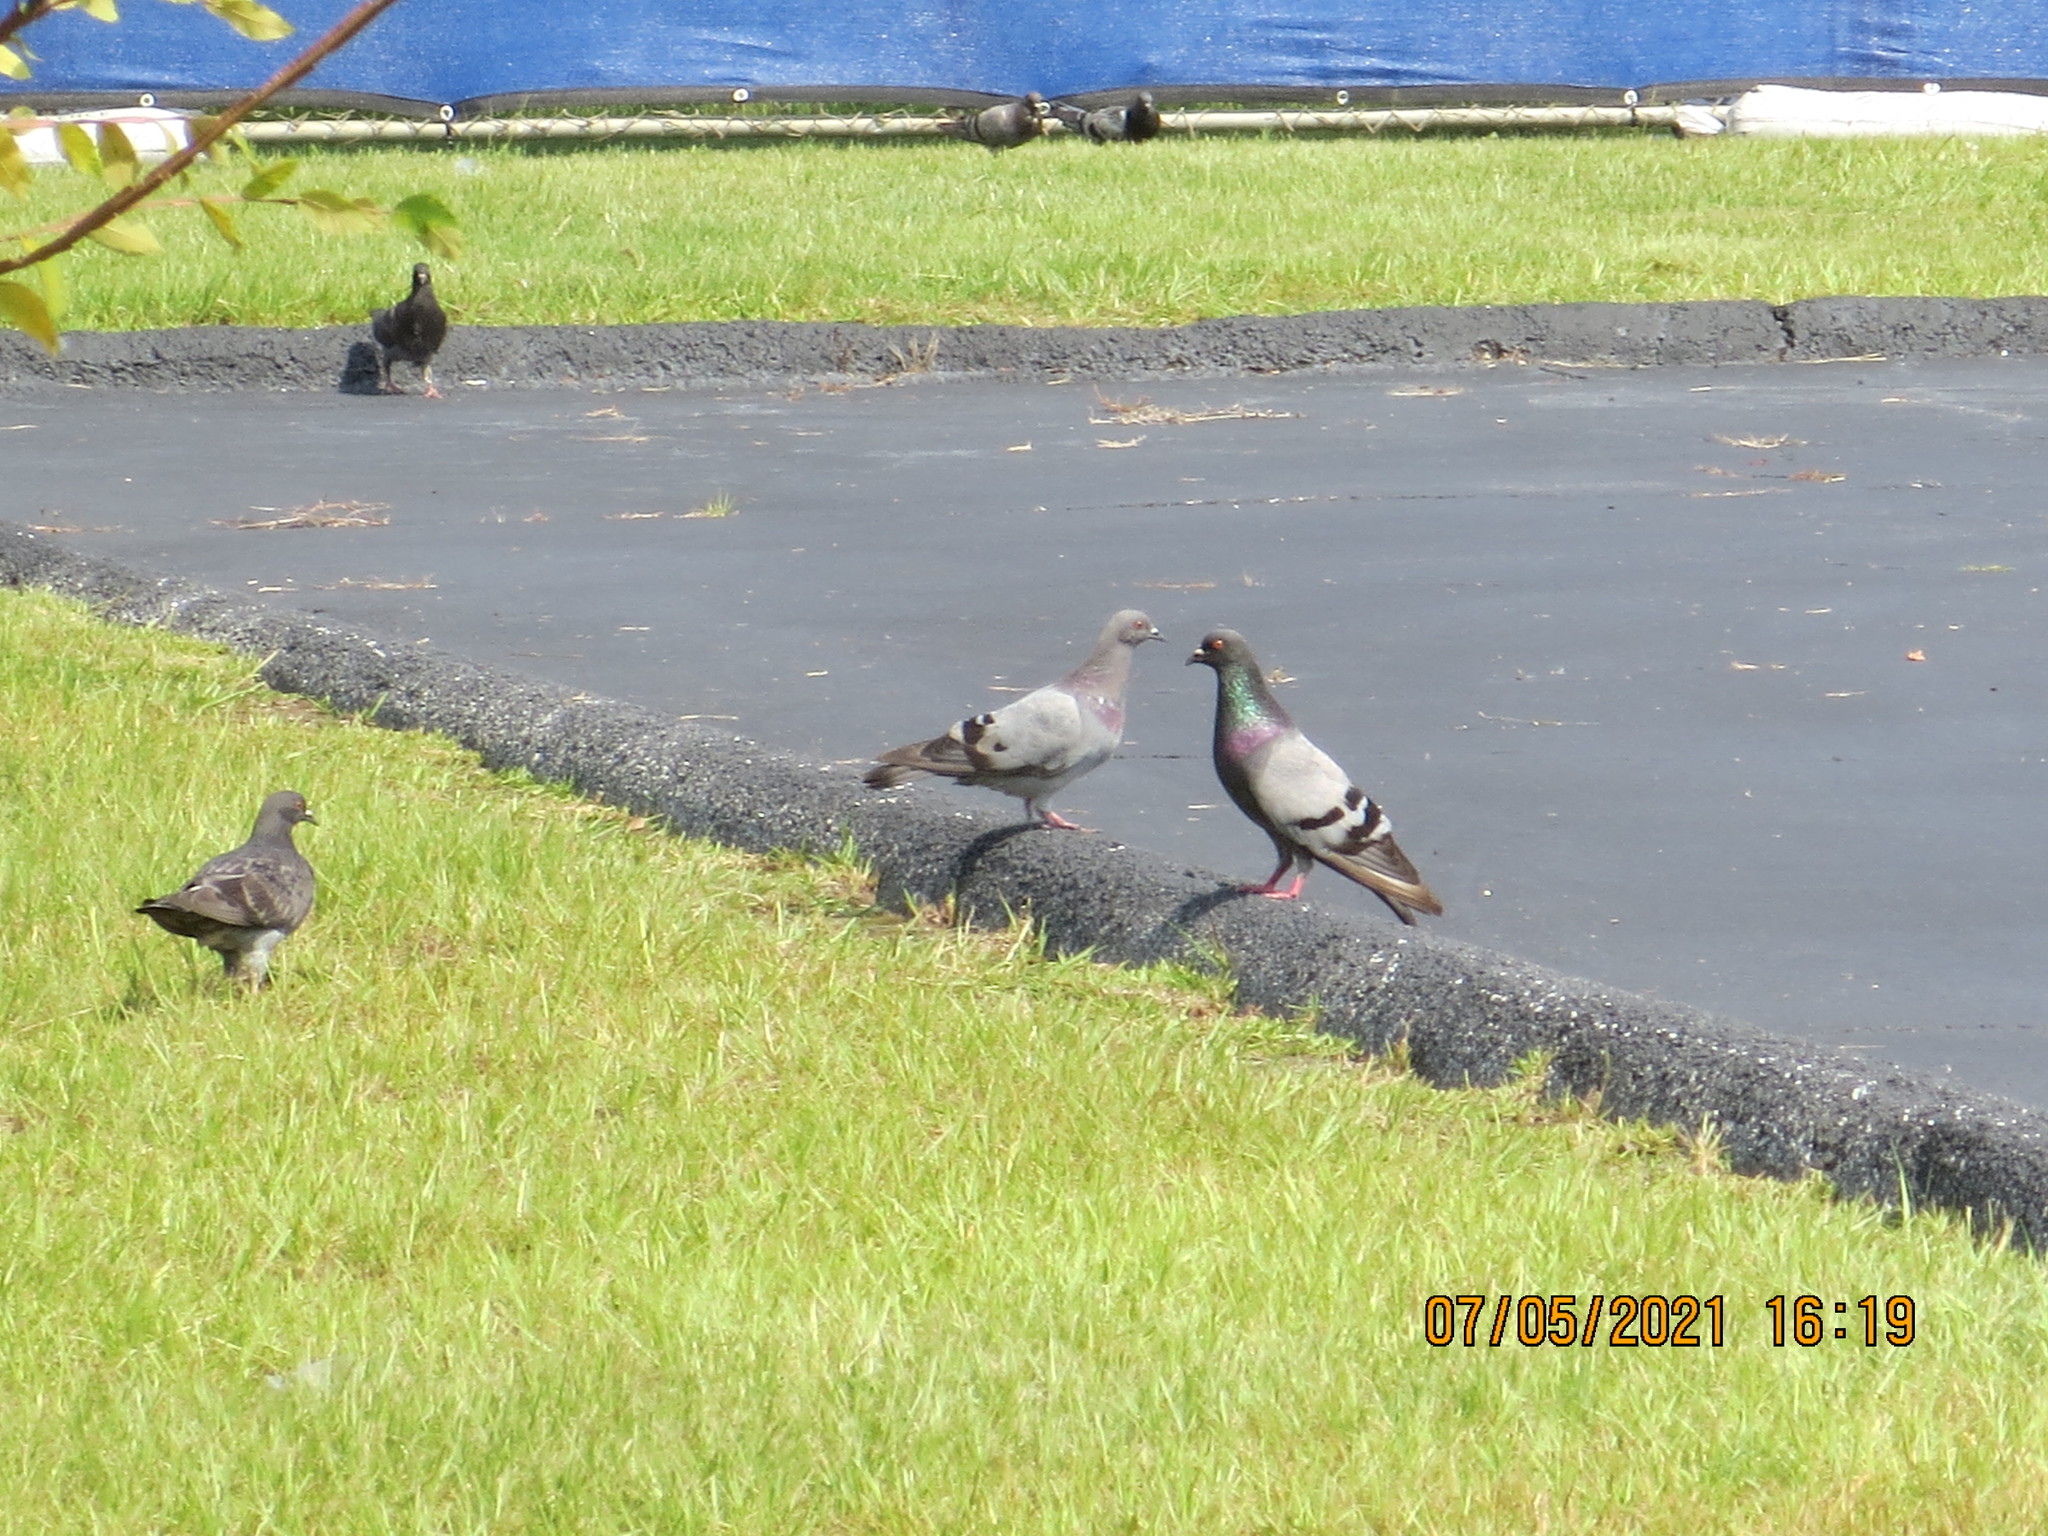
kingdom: Animalia
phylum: Chordata
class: Aves
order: Columbiformes
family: Columbidae
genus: Columba
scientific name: Columba livia
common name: Rock pigeon
